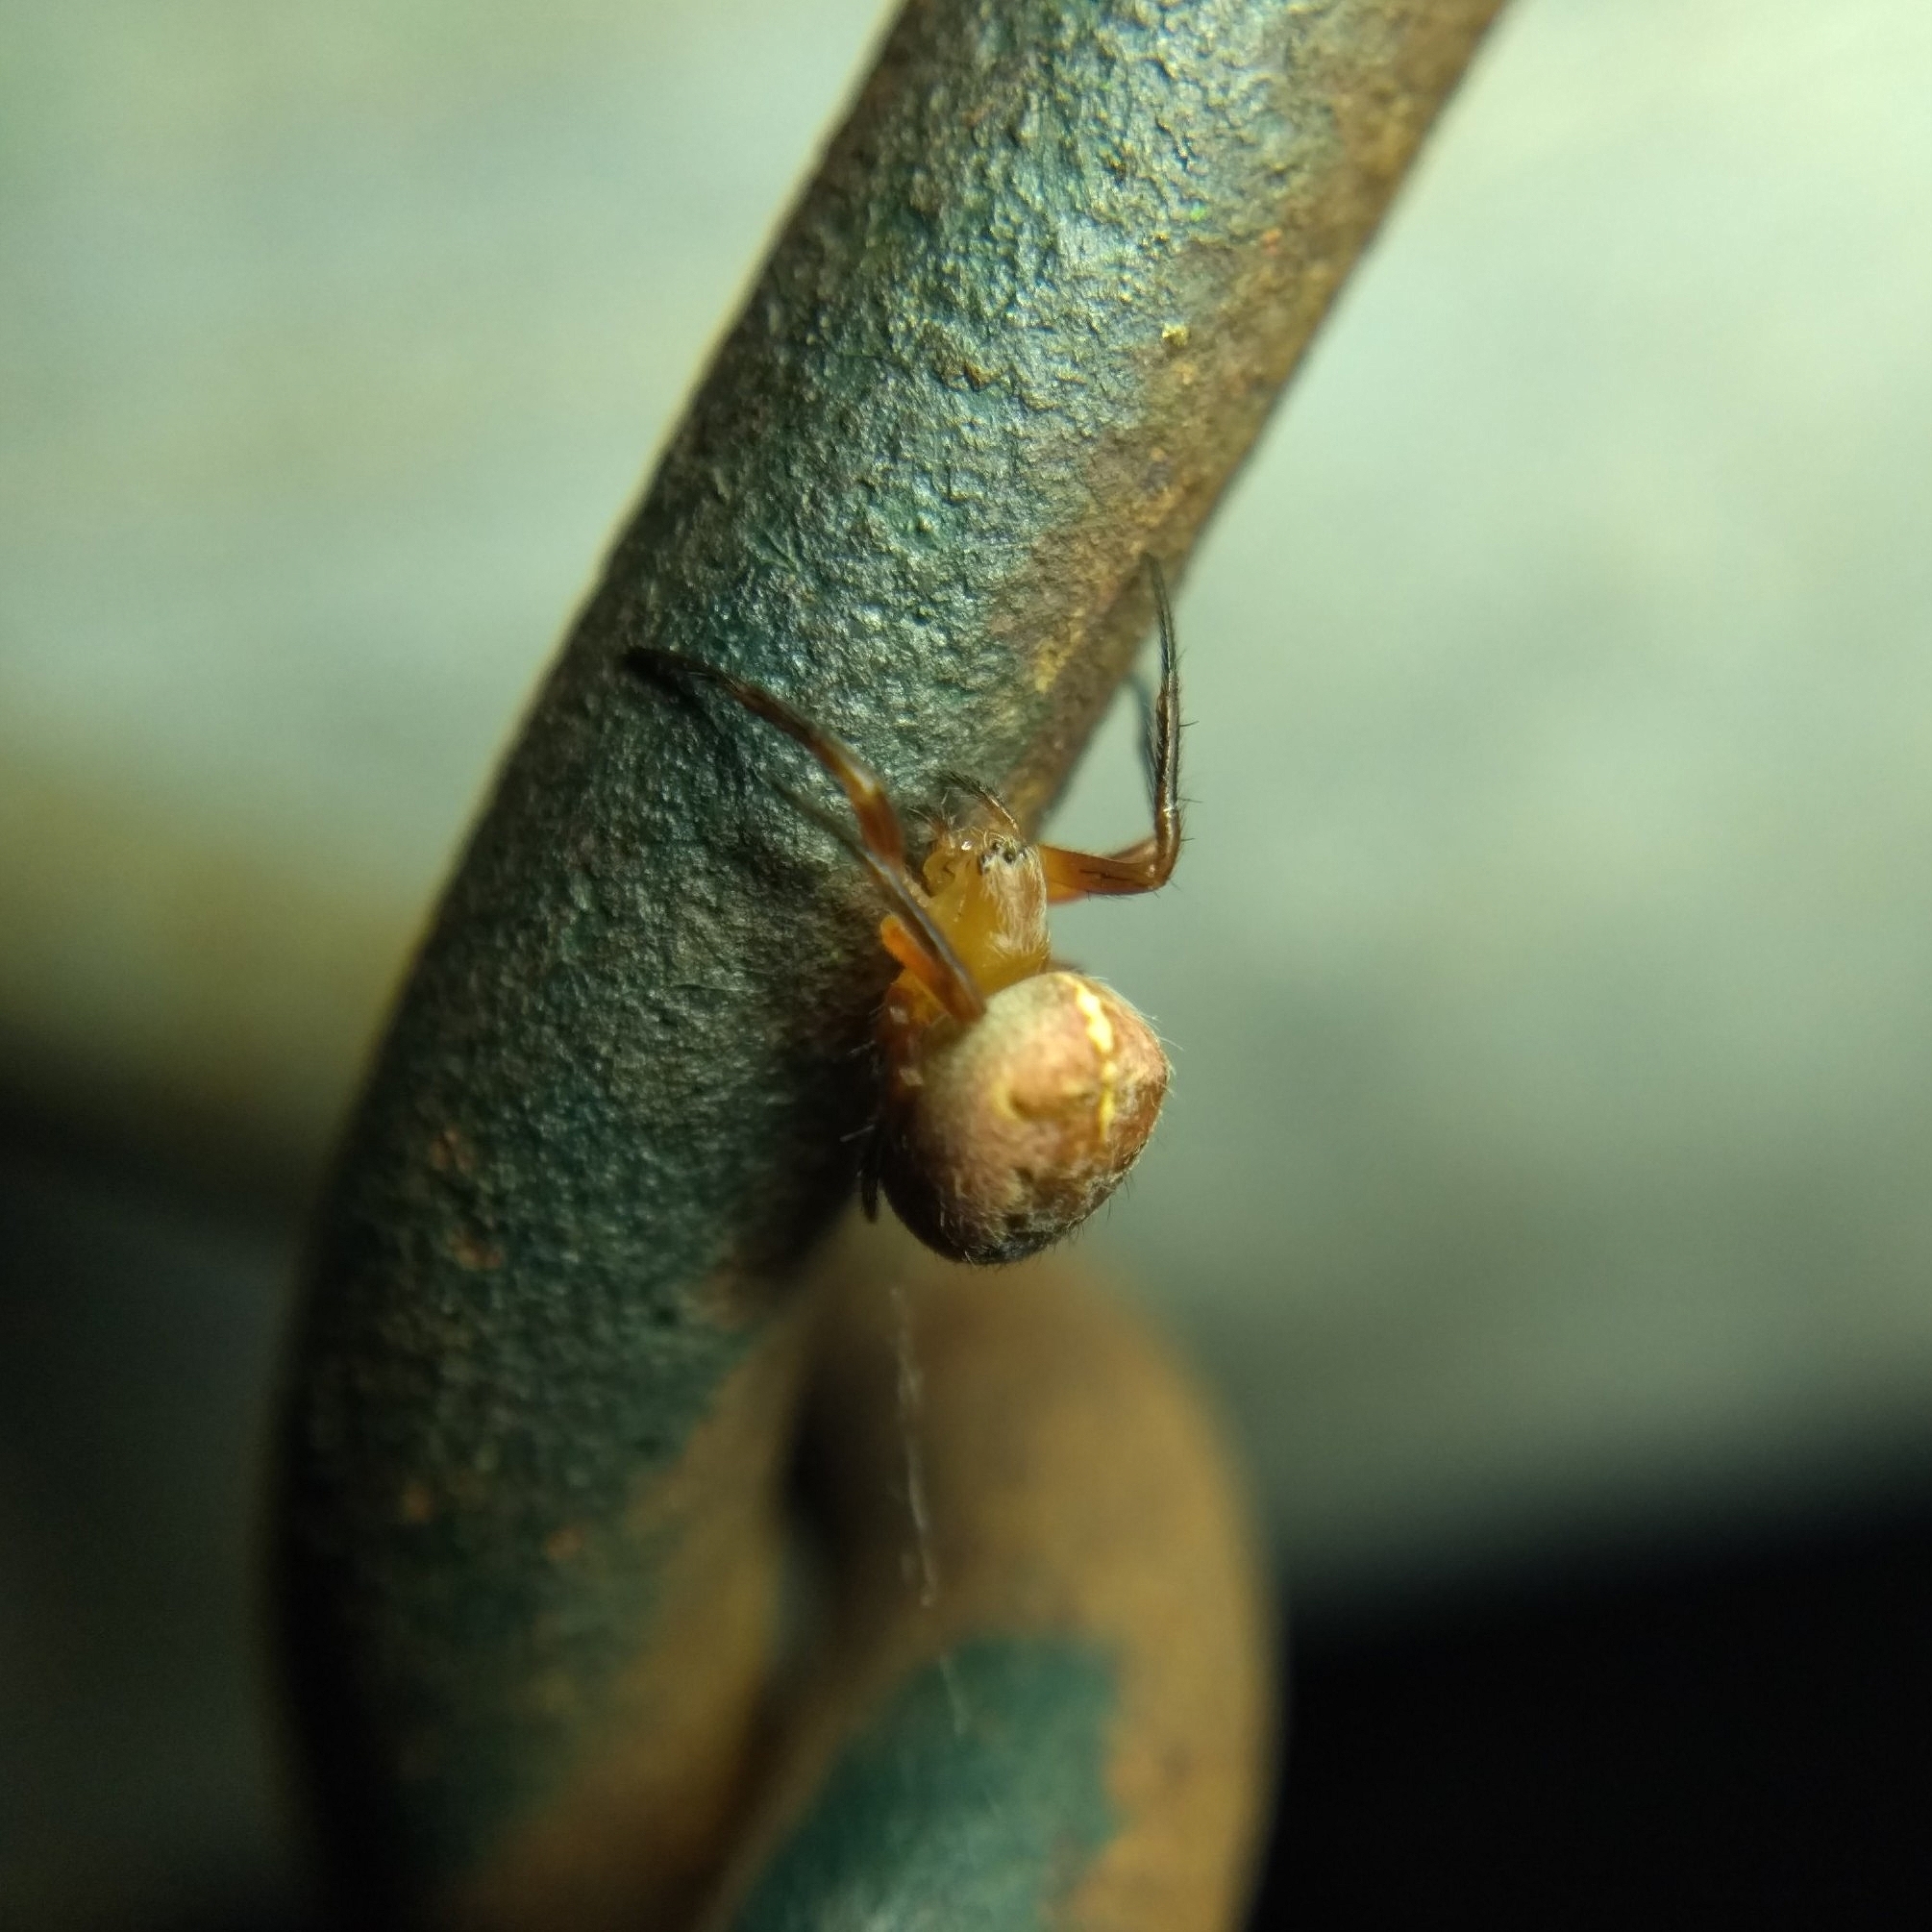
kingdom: Animalia
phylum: Arthropoda
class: Arachnida
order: Araneae
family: Araneidae
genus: Araneus
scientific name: Araneus diadematus
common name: Cross orbweaver
